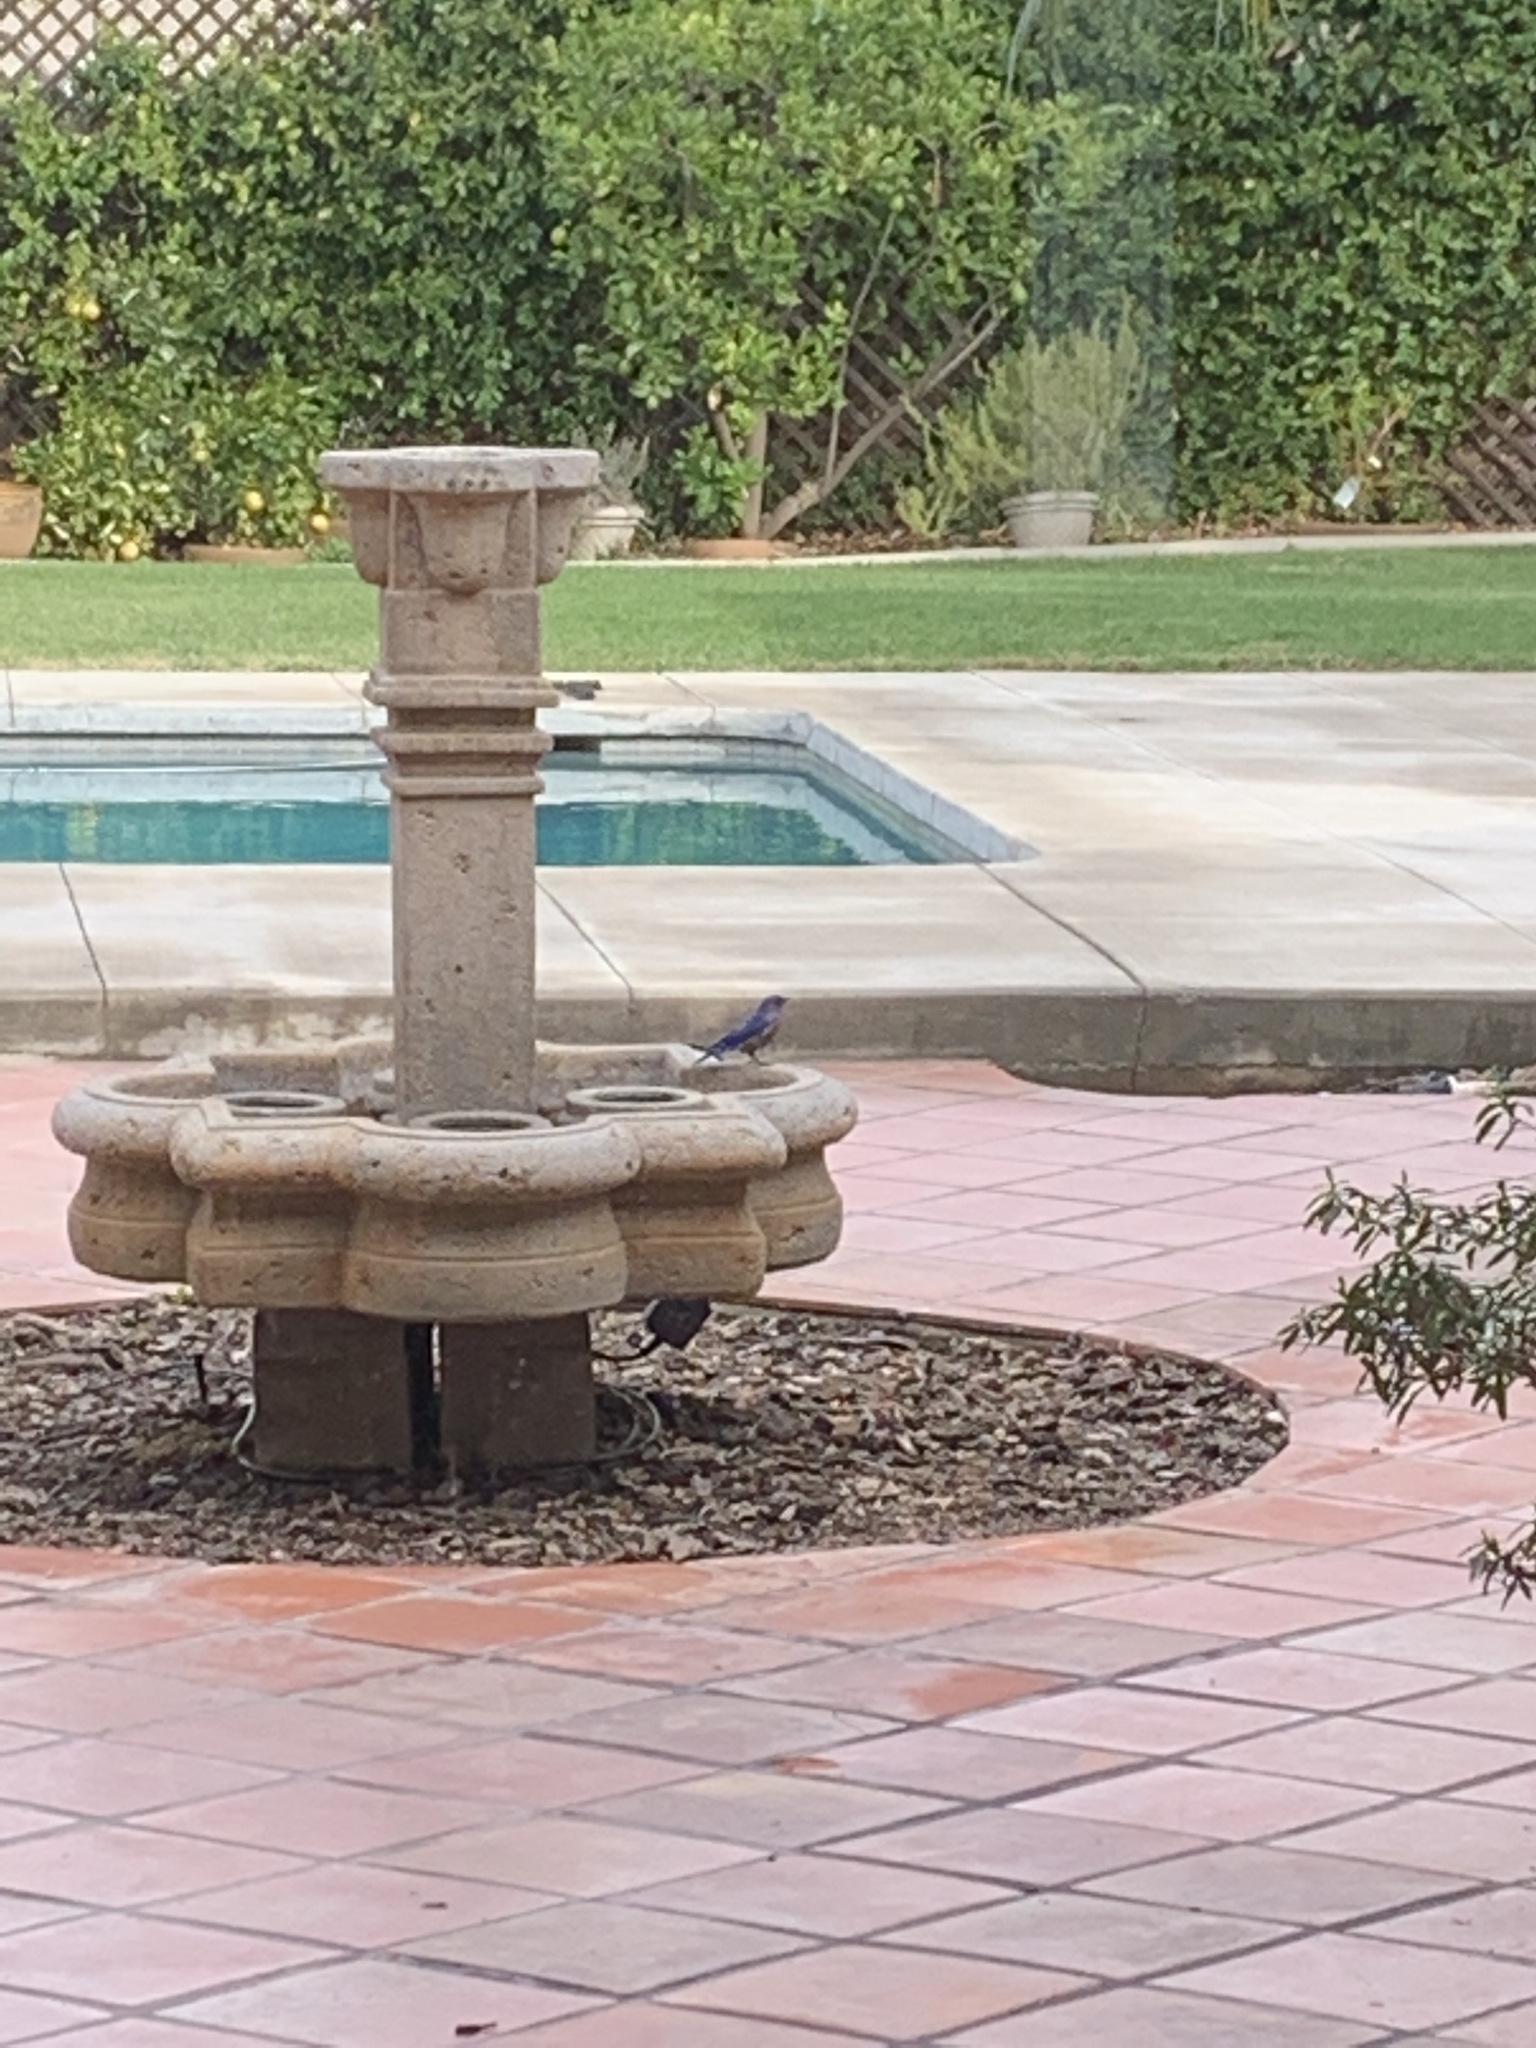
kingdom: Animalia
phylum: Chordata
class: Aves
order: Passeriformes
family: Turdidae
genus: Sialia
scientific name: Sialia mexicana
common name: Western bluebird
